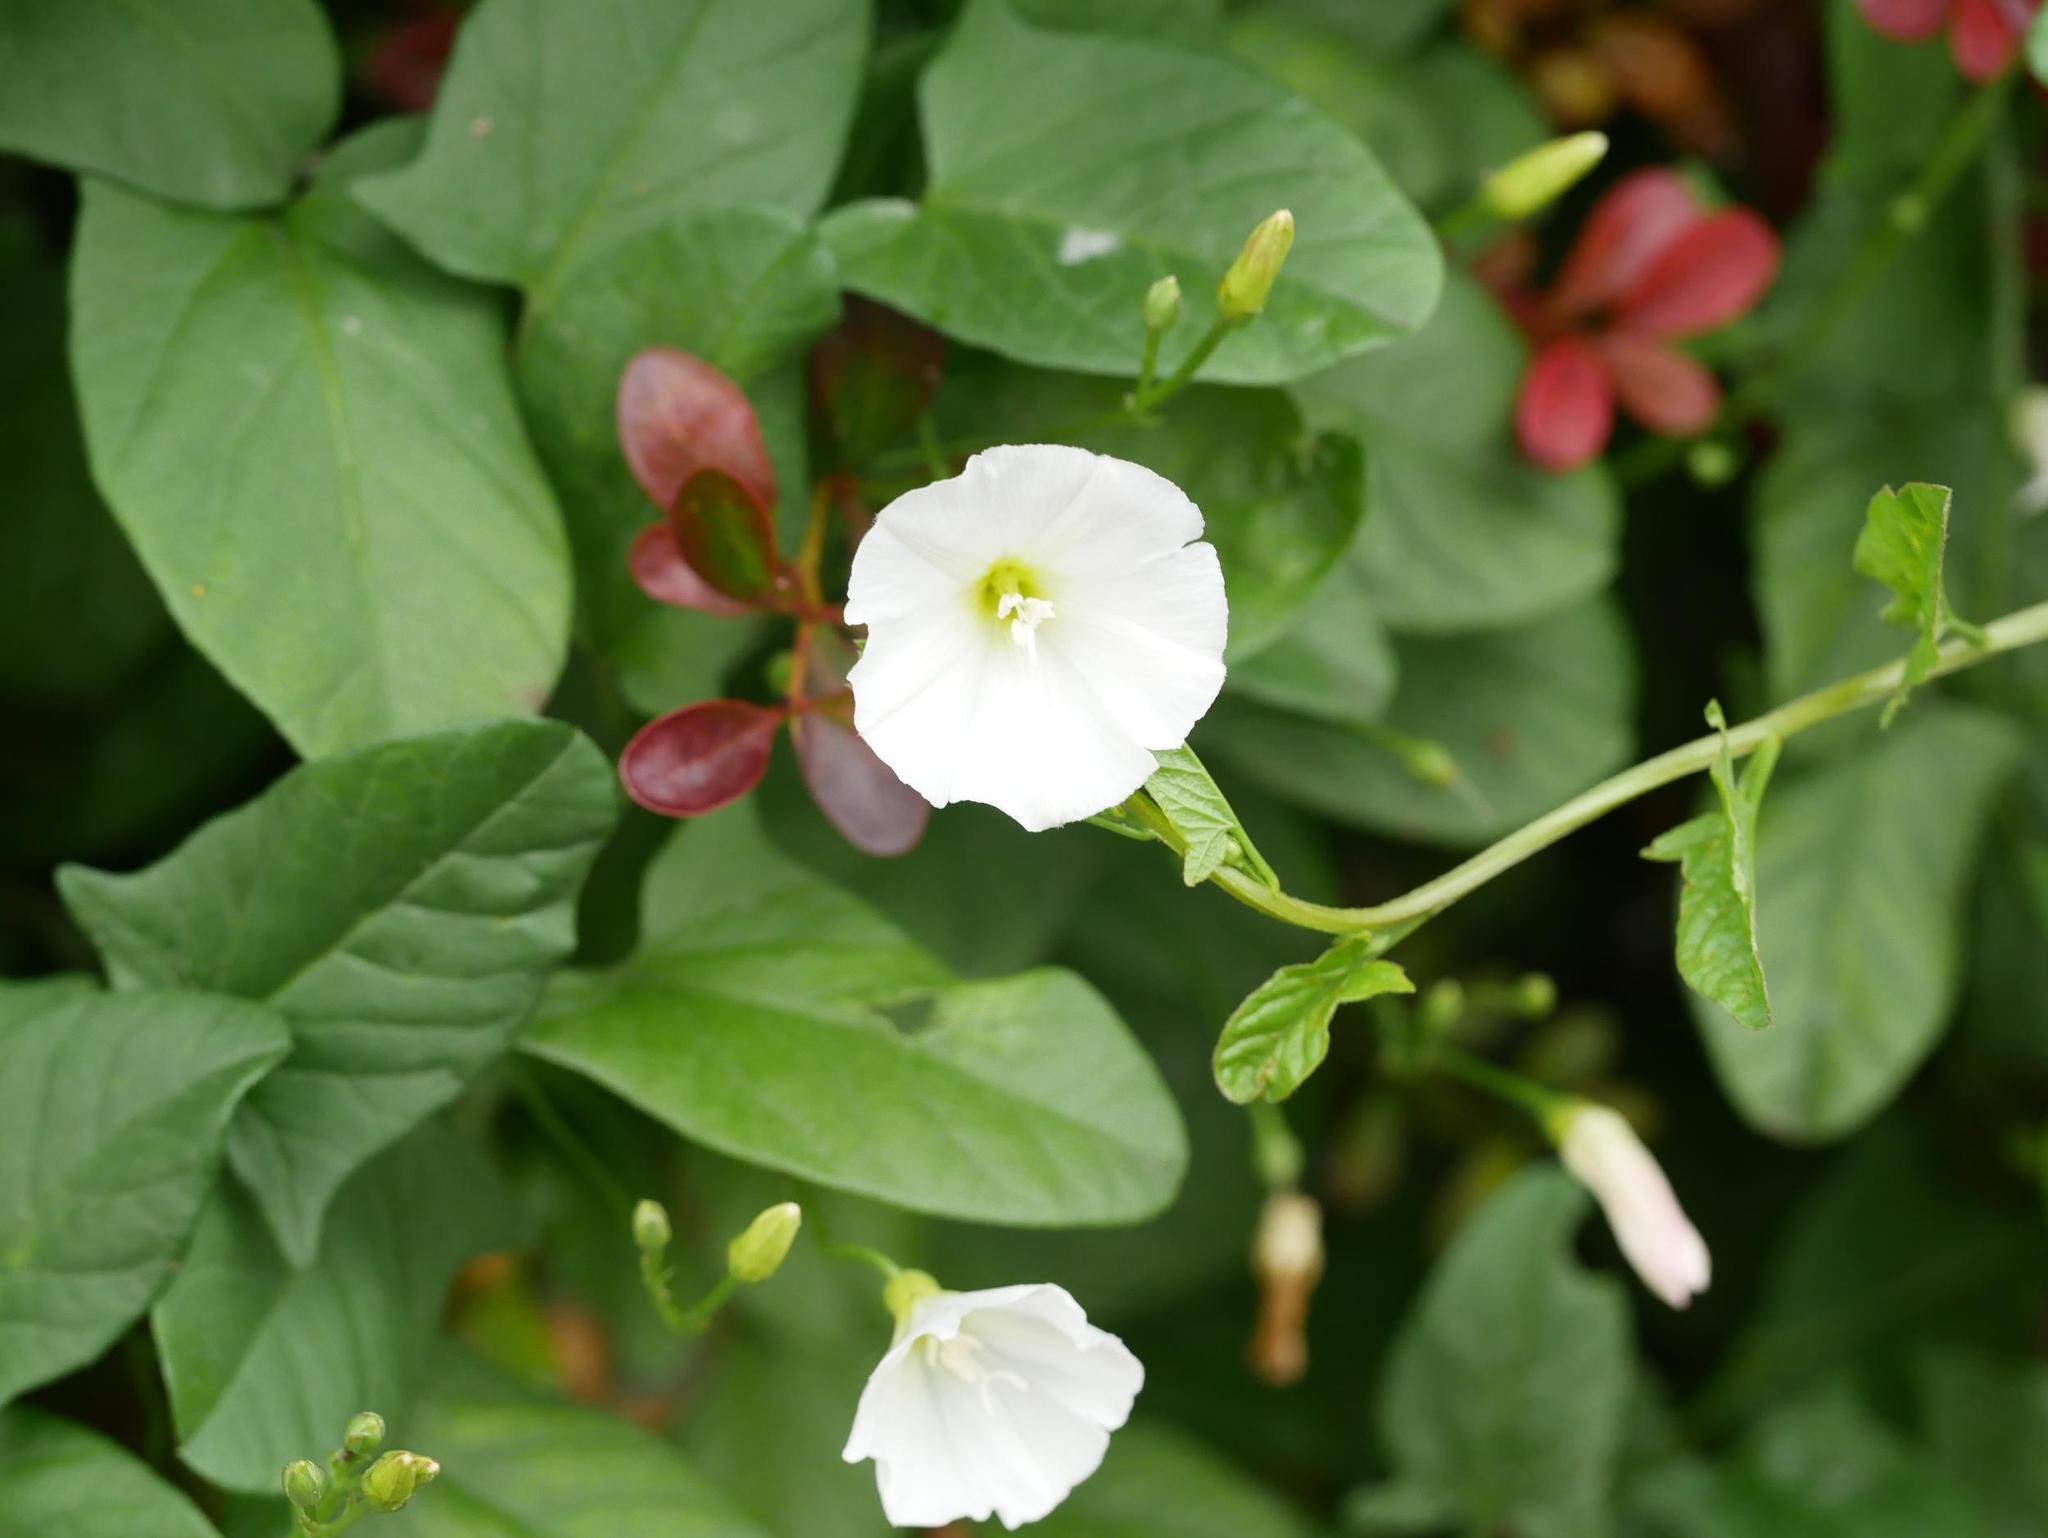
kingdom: Plantae
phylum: Tracheophyta
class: Magnoliopsida
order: Solanales
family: Convolvulaceae
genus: Convolvulus
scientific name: Convolvulus arvensis
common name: Field bindweed
